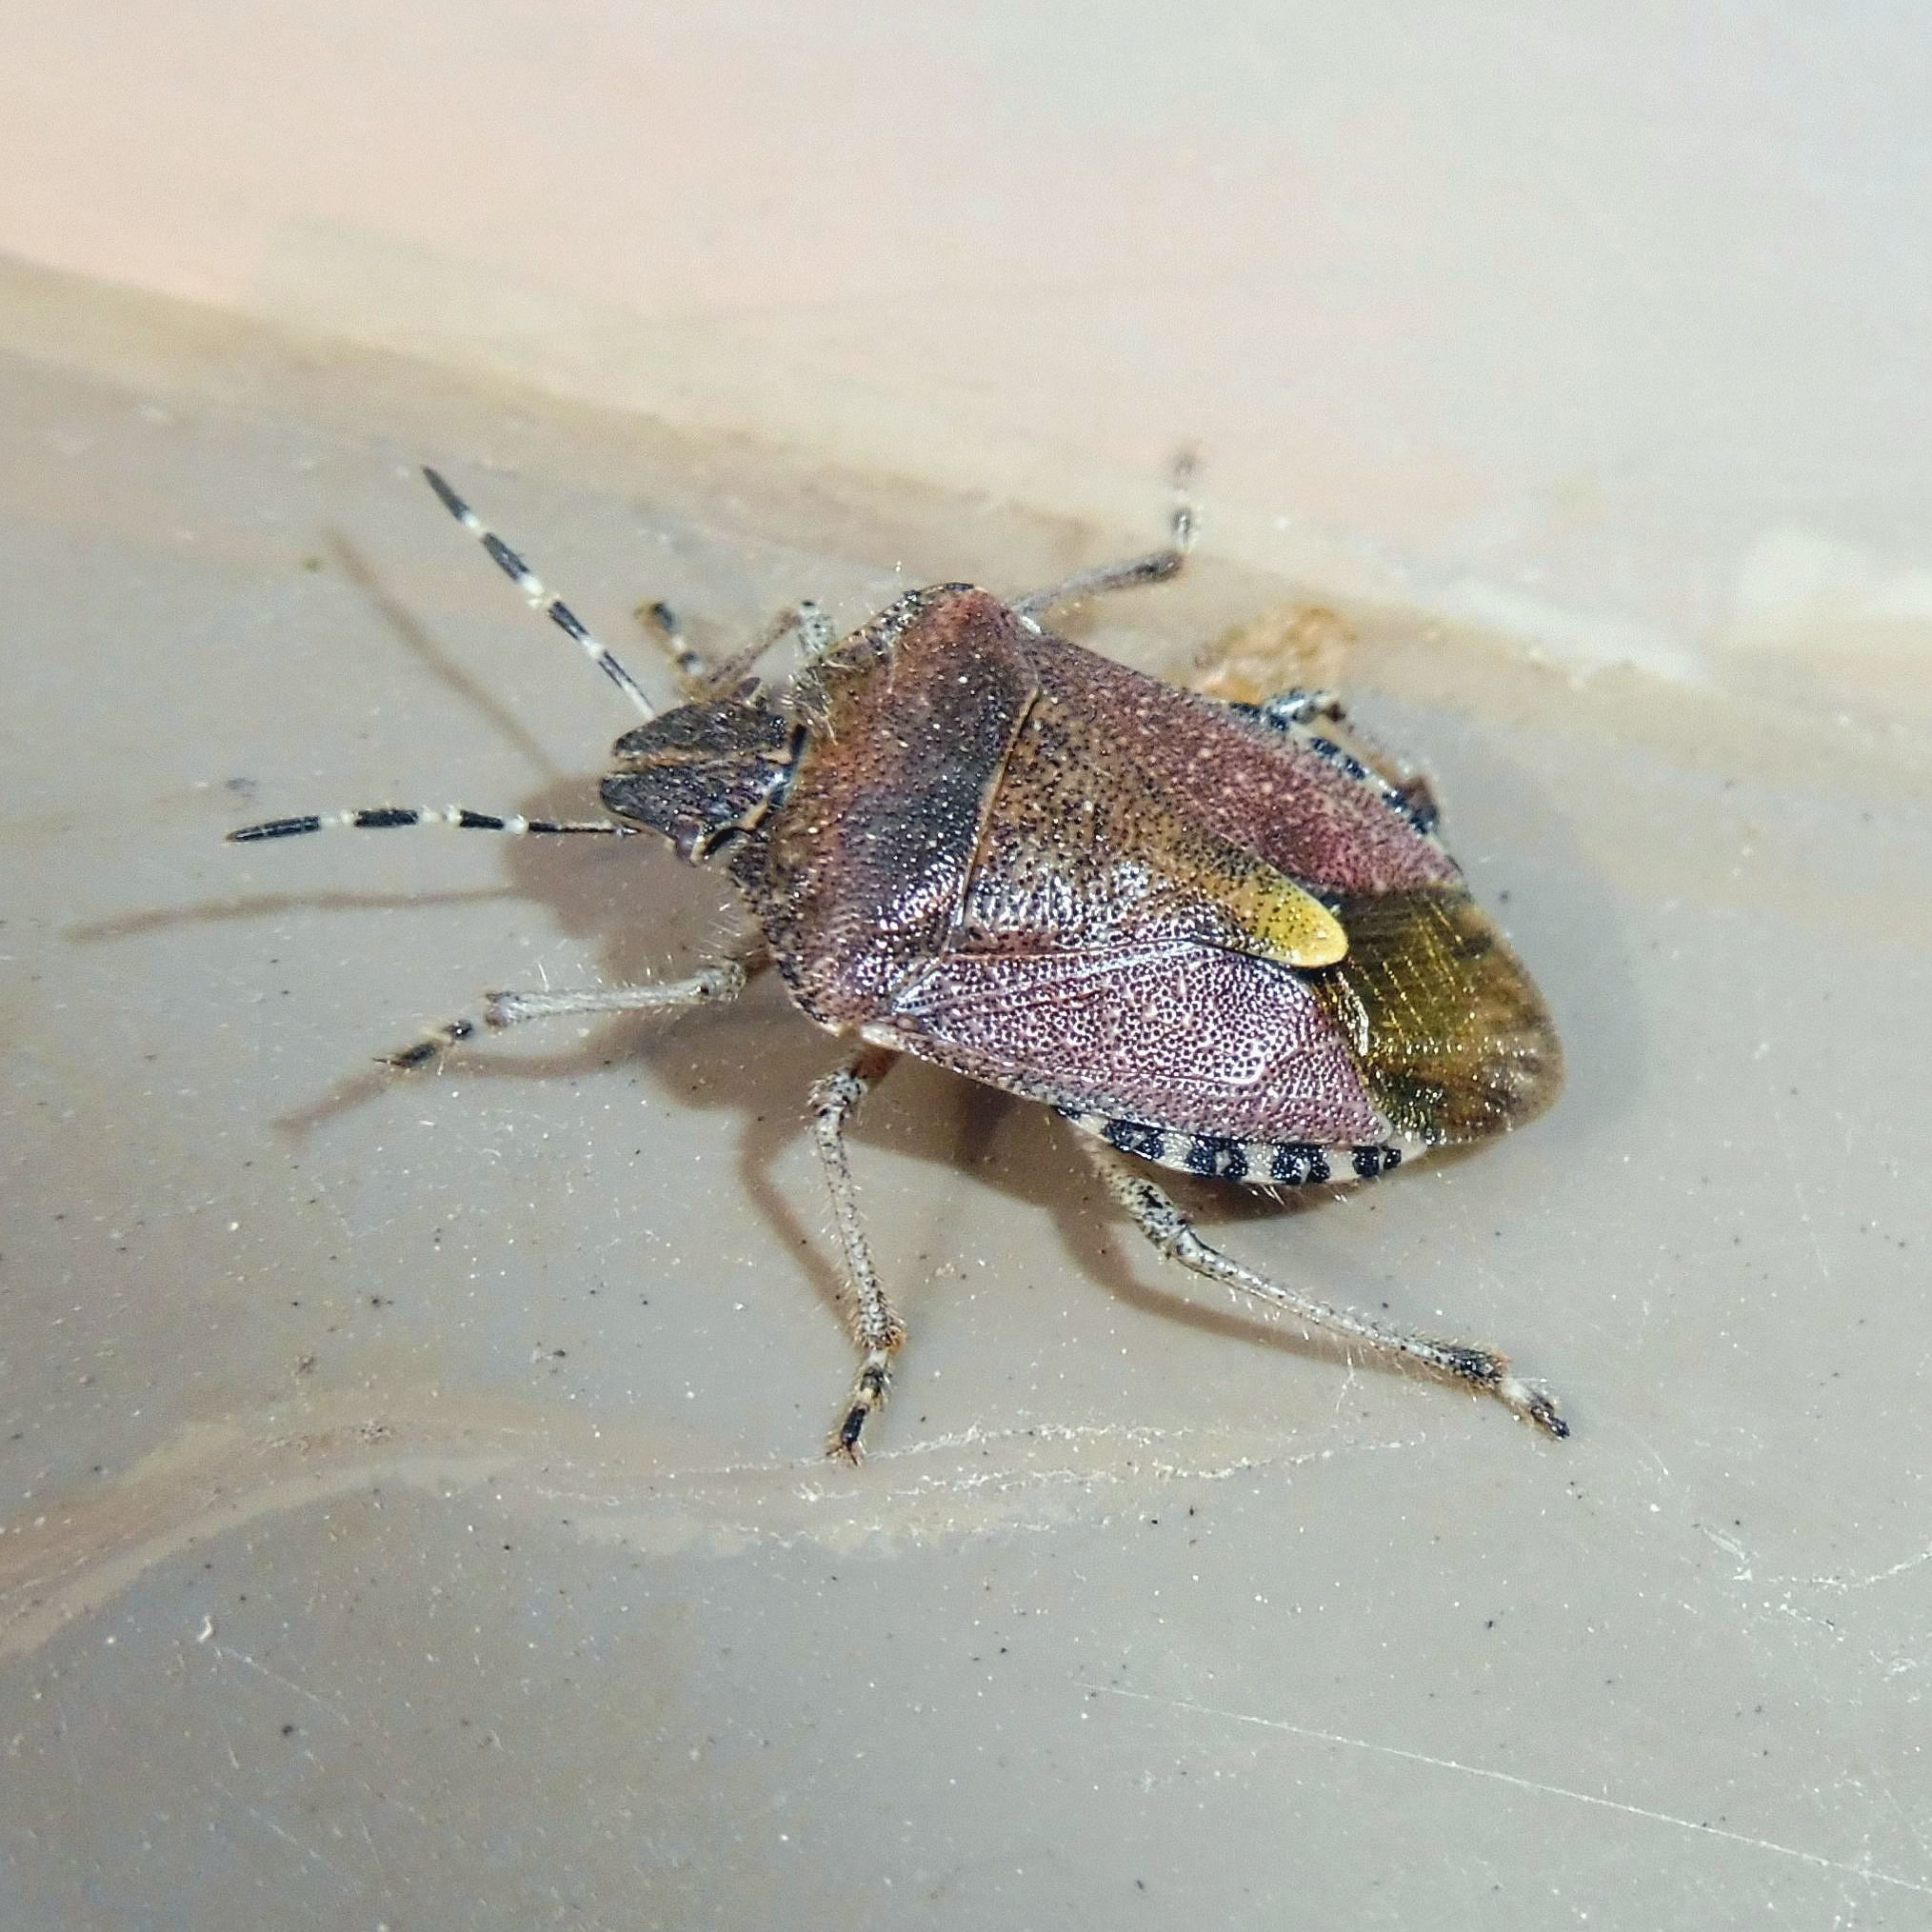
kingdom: Animalia
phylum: Arthropoda
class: Insecta
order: Hemiptera
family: Pentatomidae
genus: Dolycoris
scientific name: Dolycoris baccarum
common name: Sloe bug
